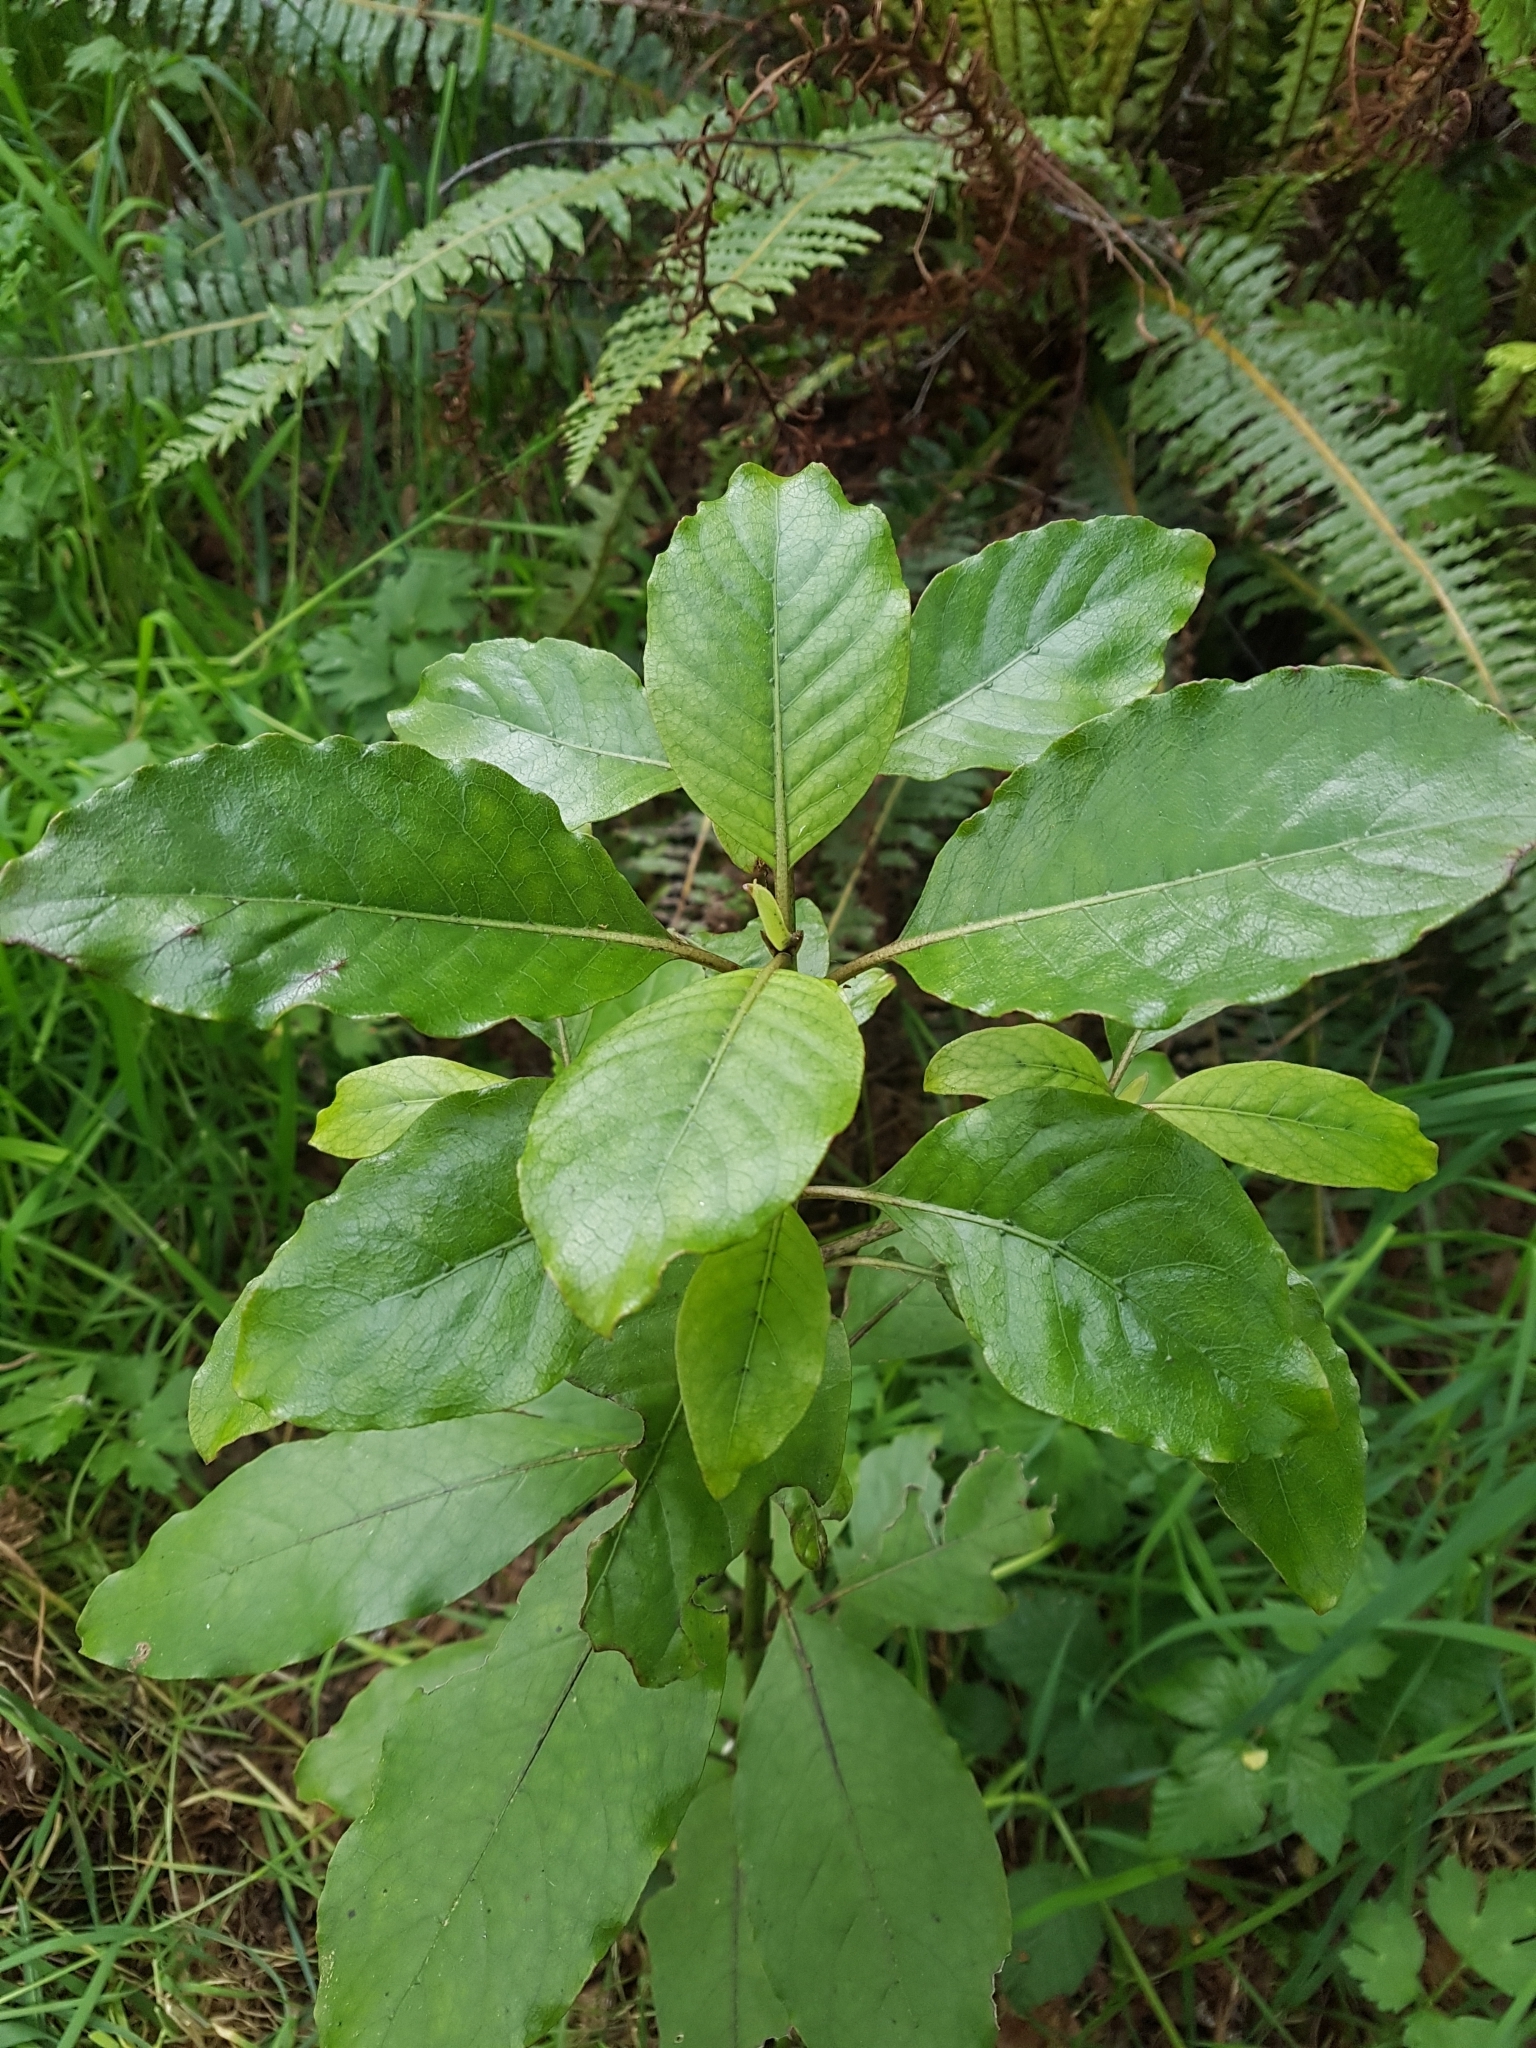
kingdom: Plantae
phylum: Tracheophyta
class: Magnoliopsida
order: Gentianales
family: Rubiaceae
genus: Coprosma
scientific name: Coprosma autumnalis
